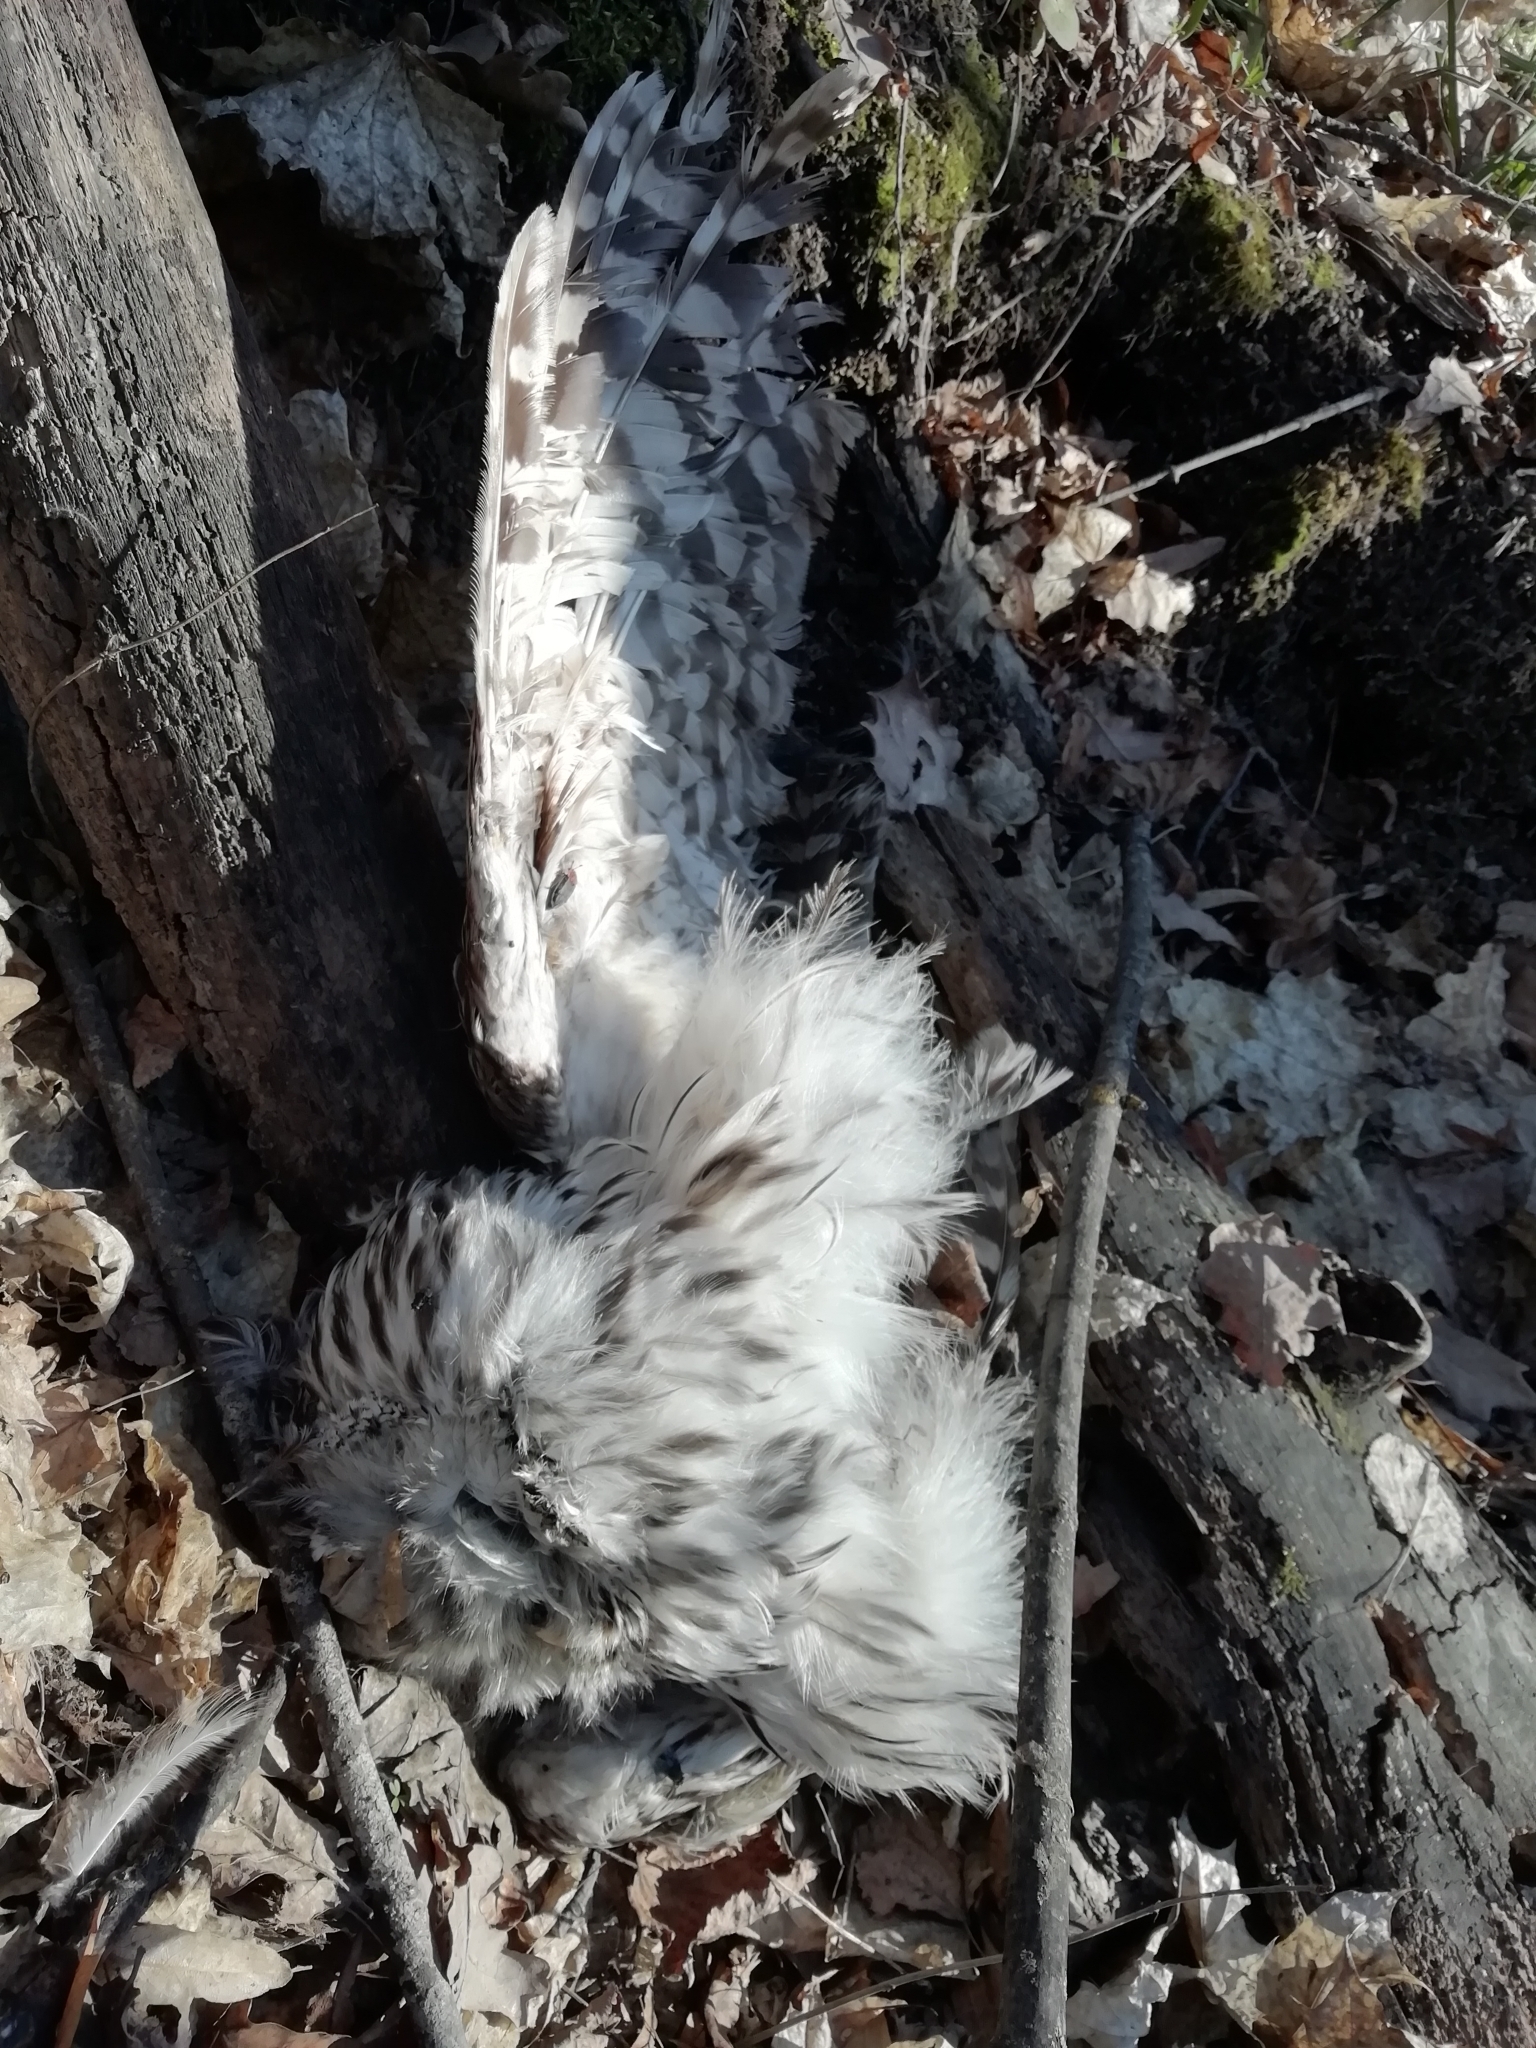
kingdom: Animalia
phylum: Chordata
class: Aves
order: Strigiformes
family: Strigidae
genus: Strix
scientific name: Strix uralensis
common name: Ural owl
